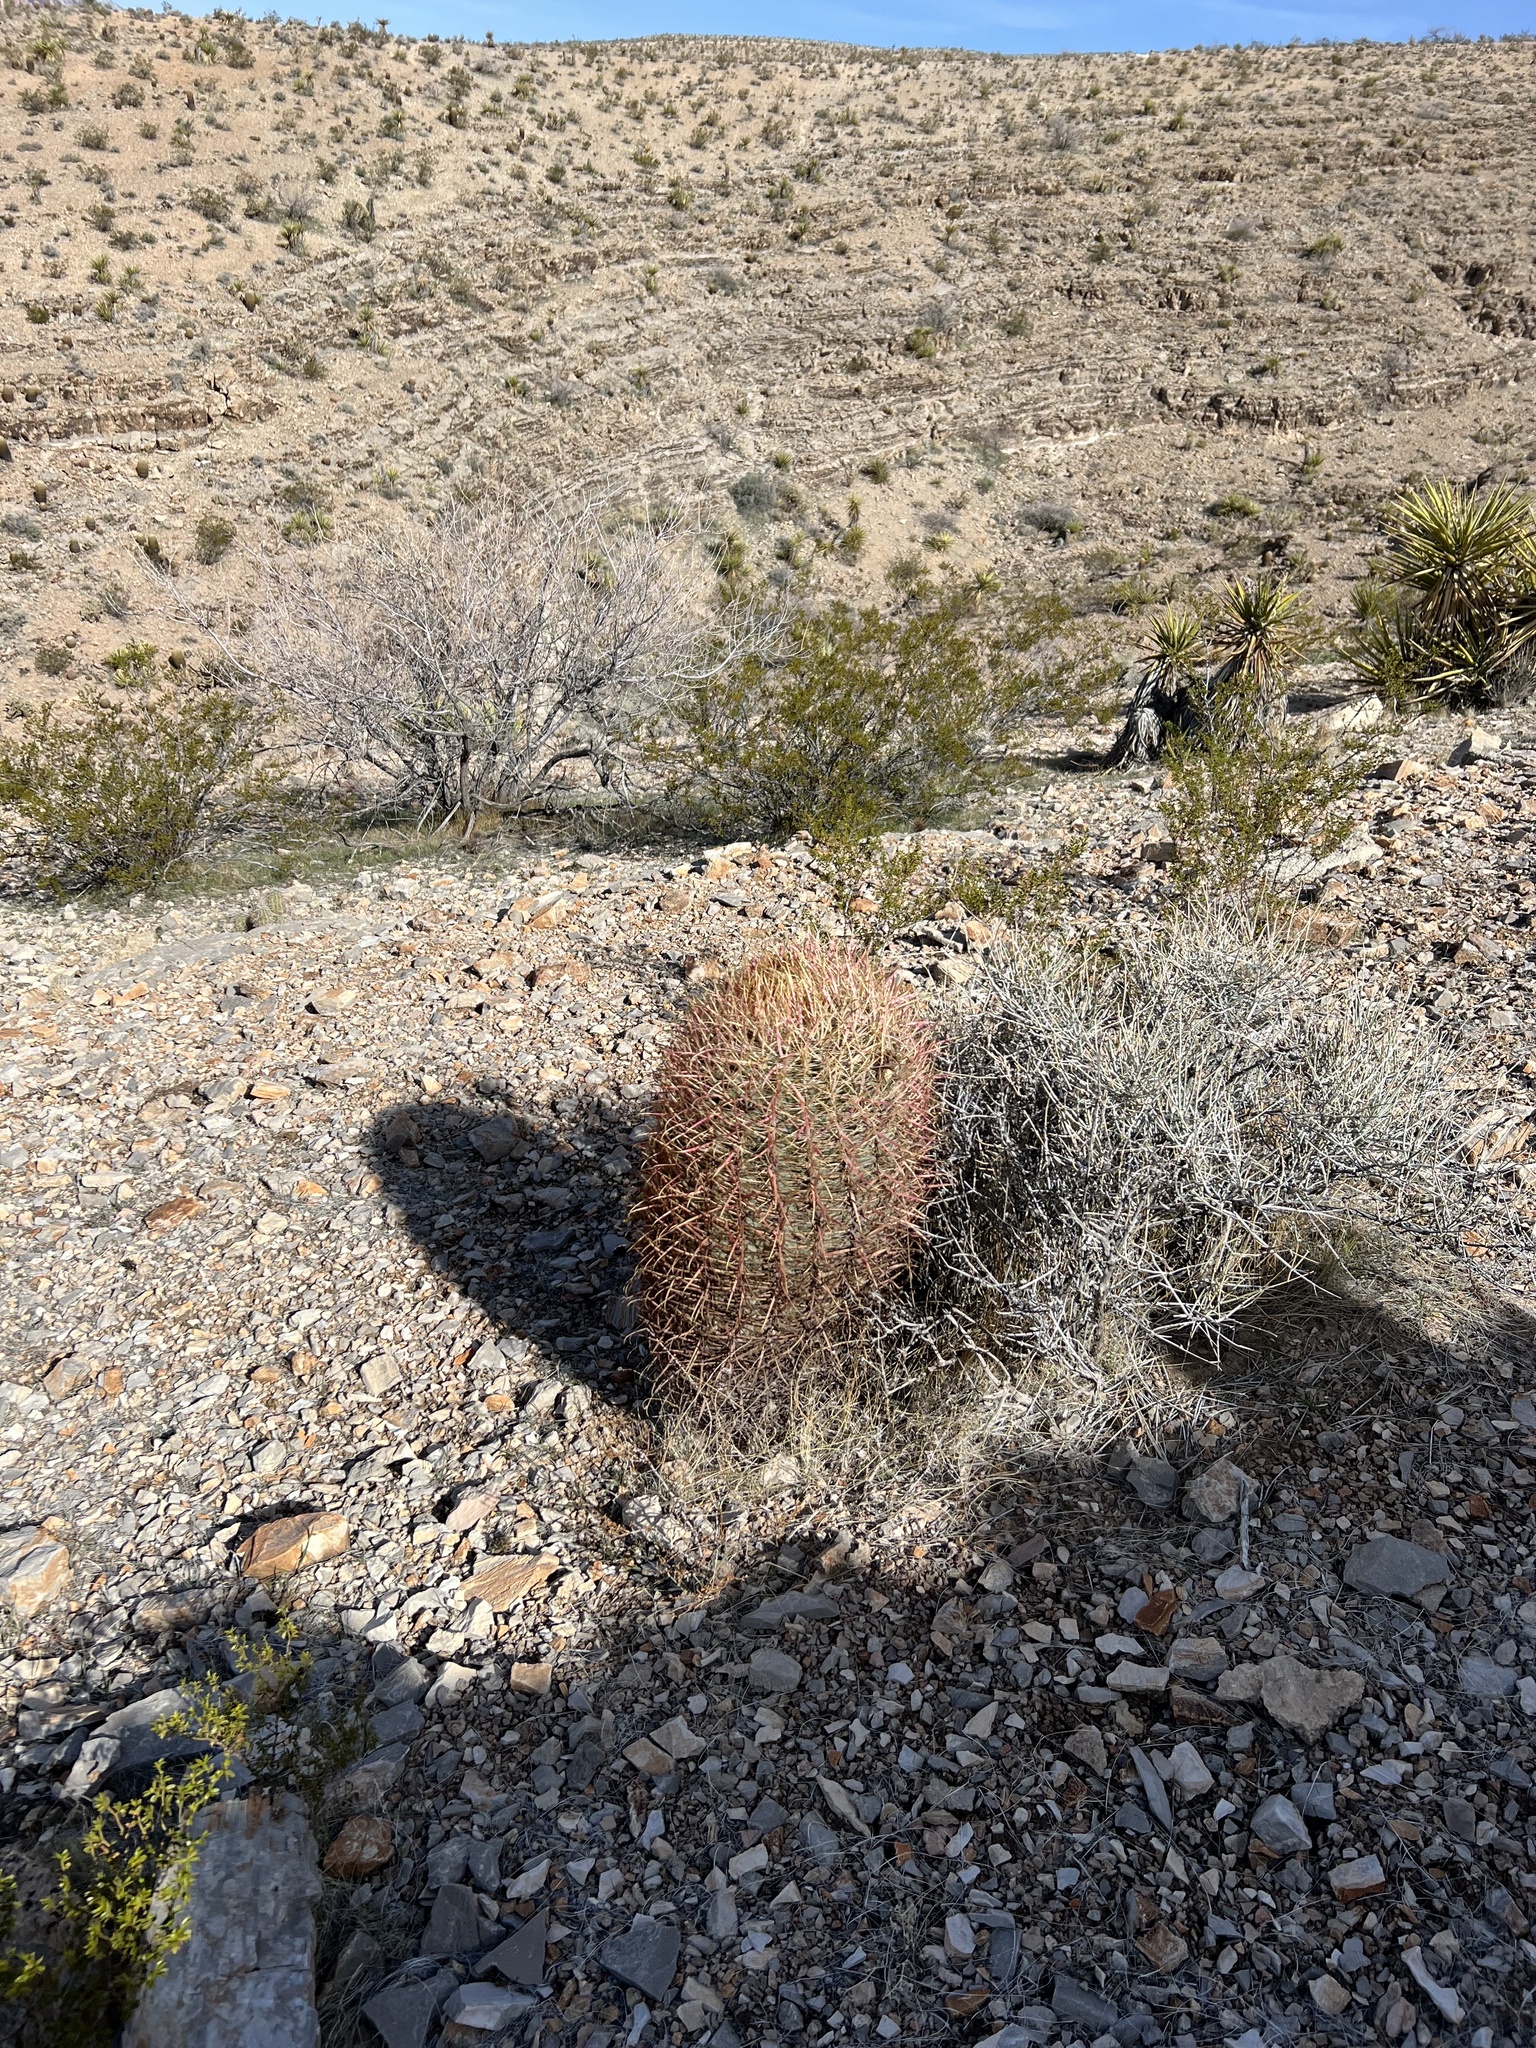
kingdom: Plantae
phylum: Tracheophyta
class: Magnoliopsida
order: Caryophyllales
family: Cactaceae
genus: Ferocactus
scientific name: Ferocactus cylindraceus
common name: California barrel cactus
